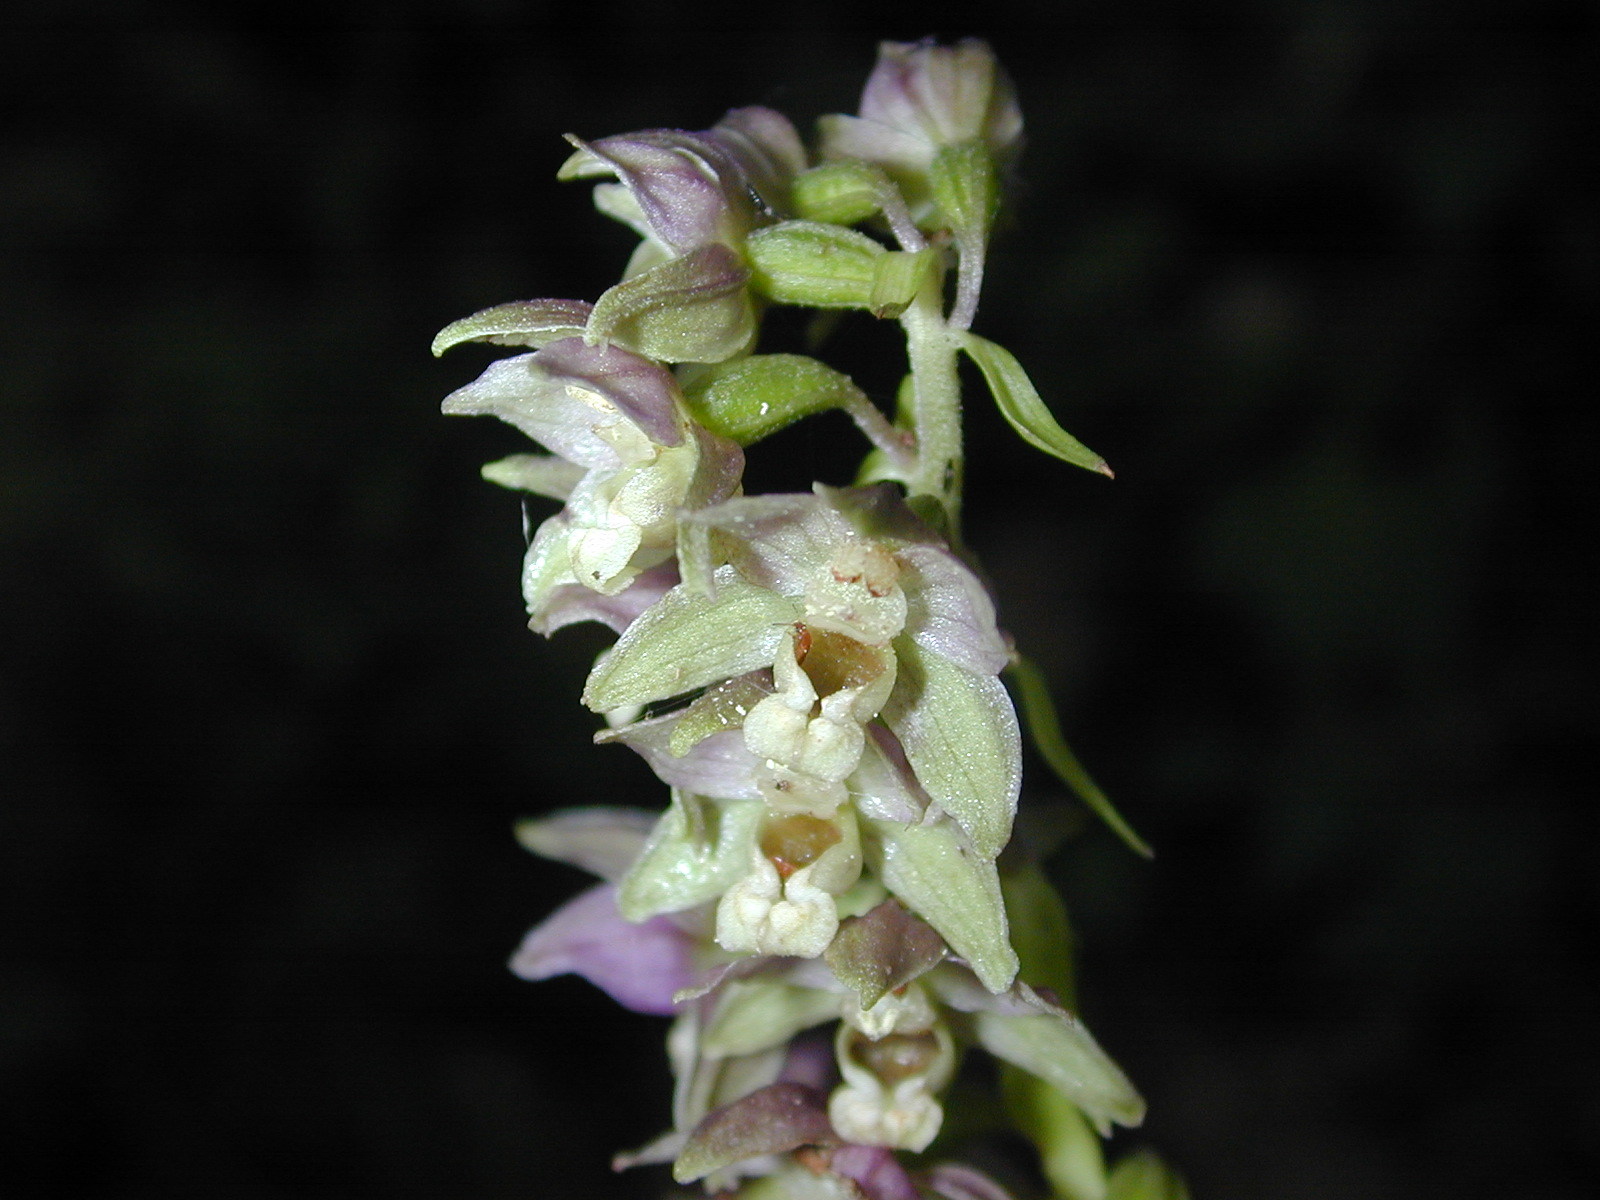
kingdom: Plantae
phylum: Tracheophyta
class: Liliopsida
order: Asparagales
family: Orchidaceae
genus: Epipactis
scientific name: Epipactis helleborine
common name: Broad-leaved helleborine
